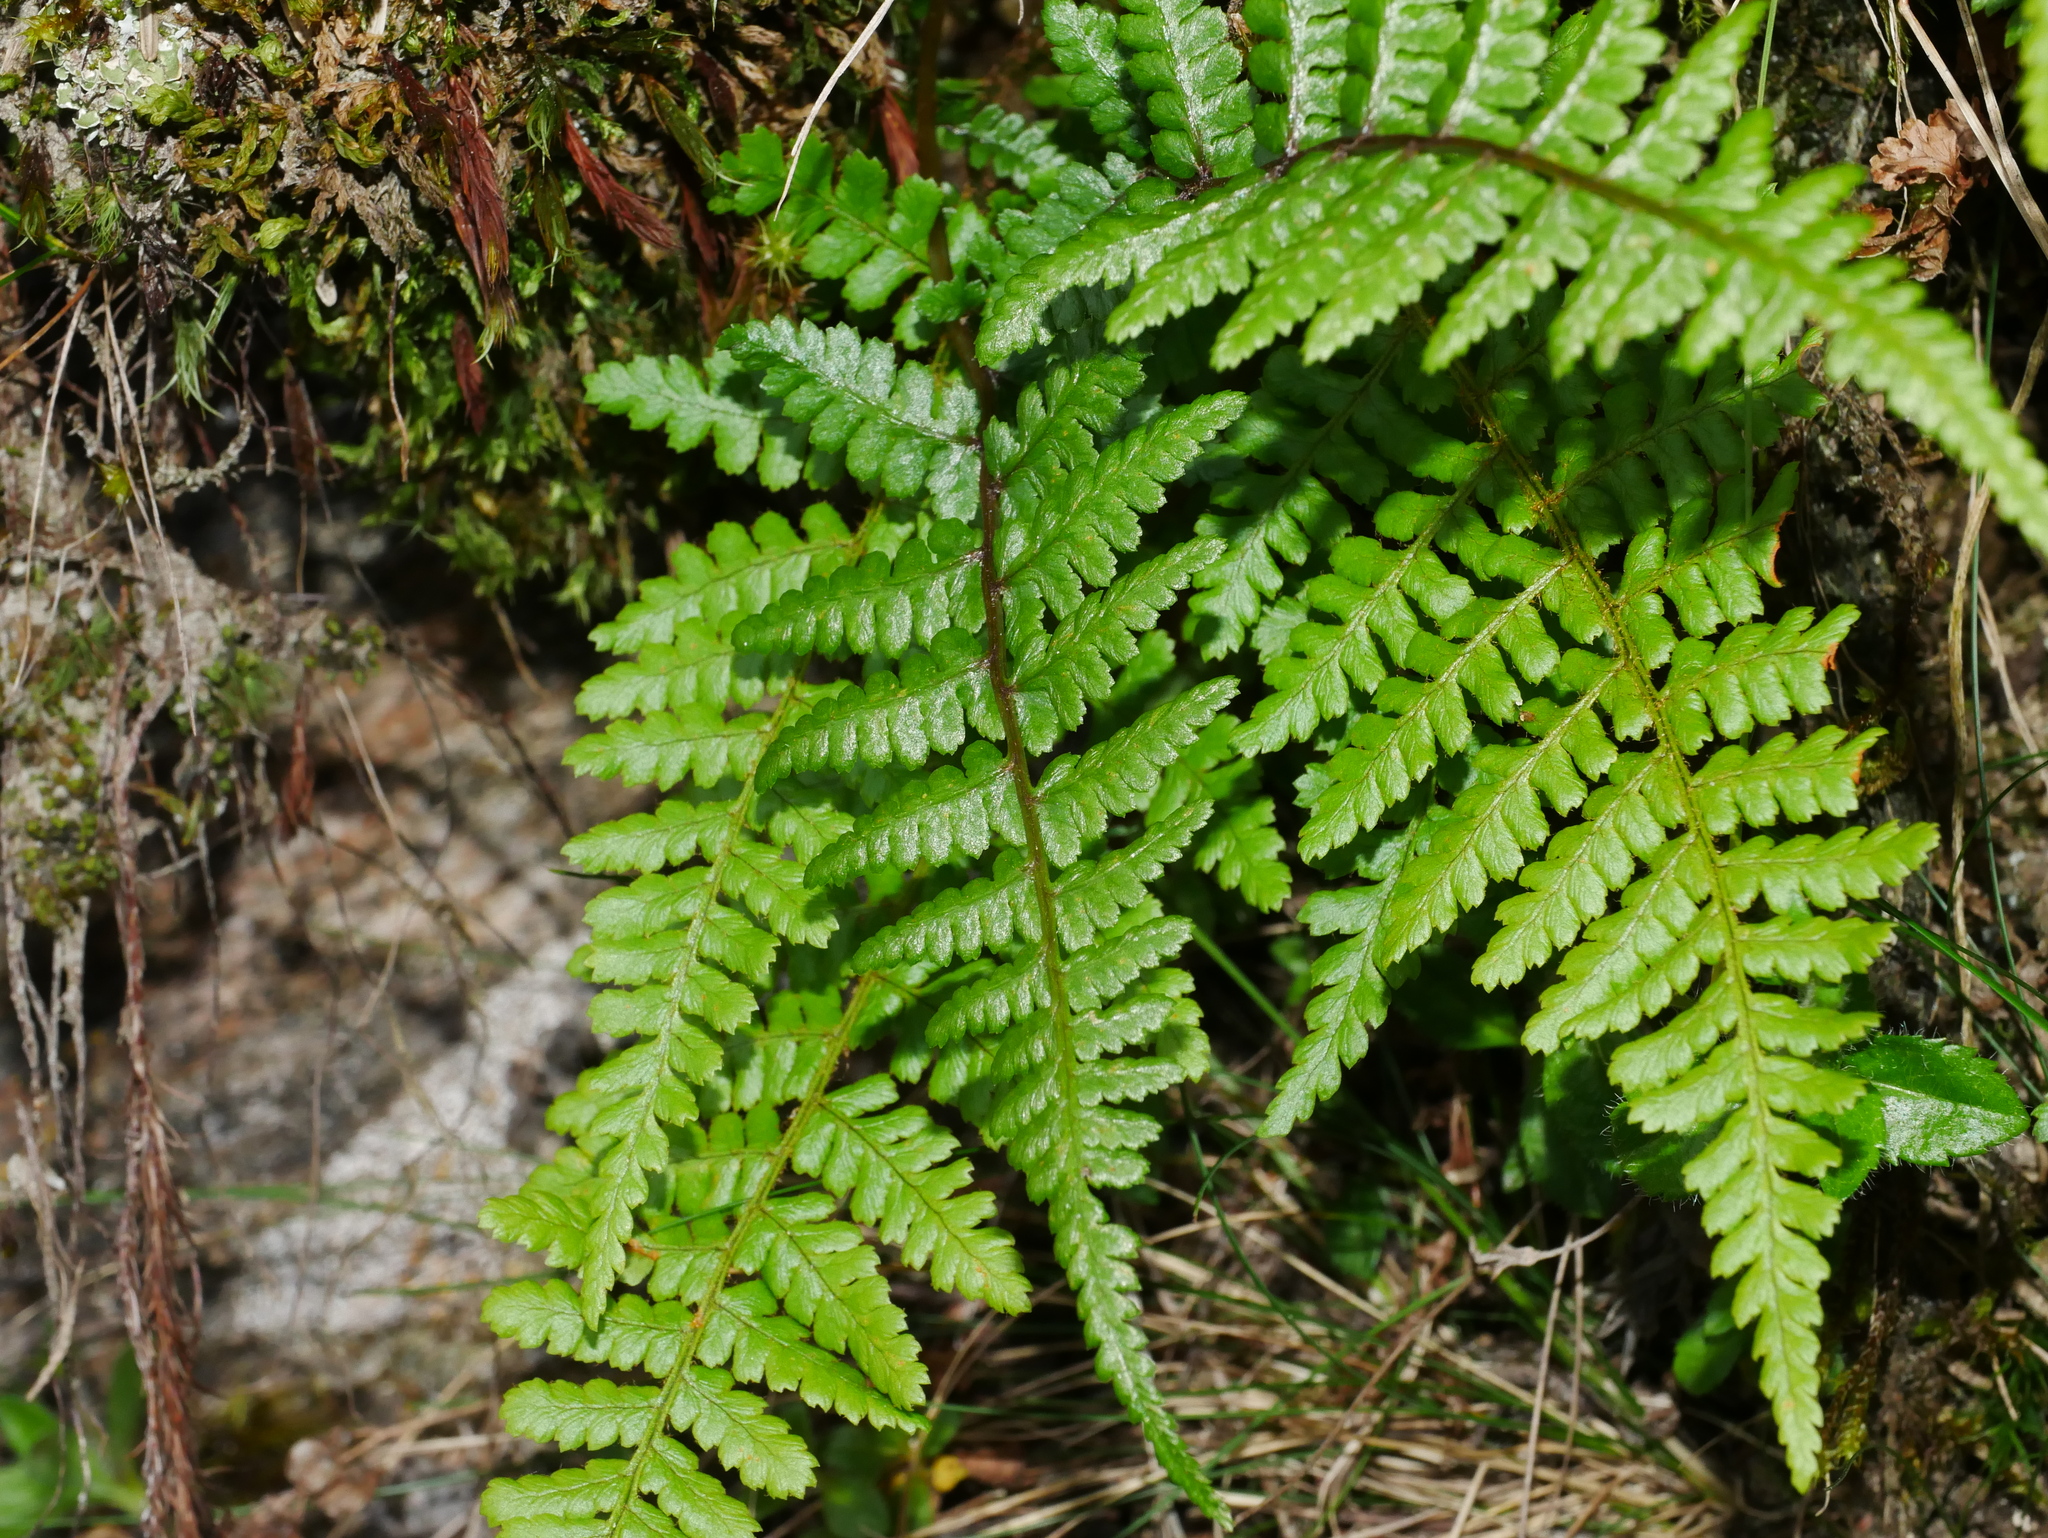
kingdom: Plantae
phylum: Tracheophyta
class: Polypodiopsida
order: Polypodiales
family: Athyriaceae
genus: Athyrium
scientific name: Athyrium oppositipennum
